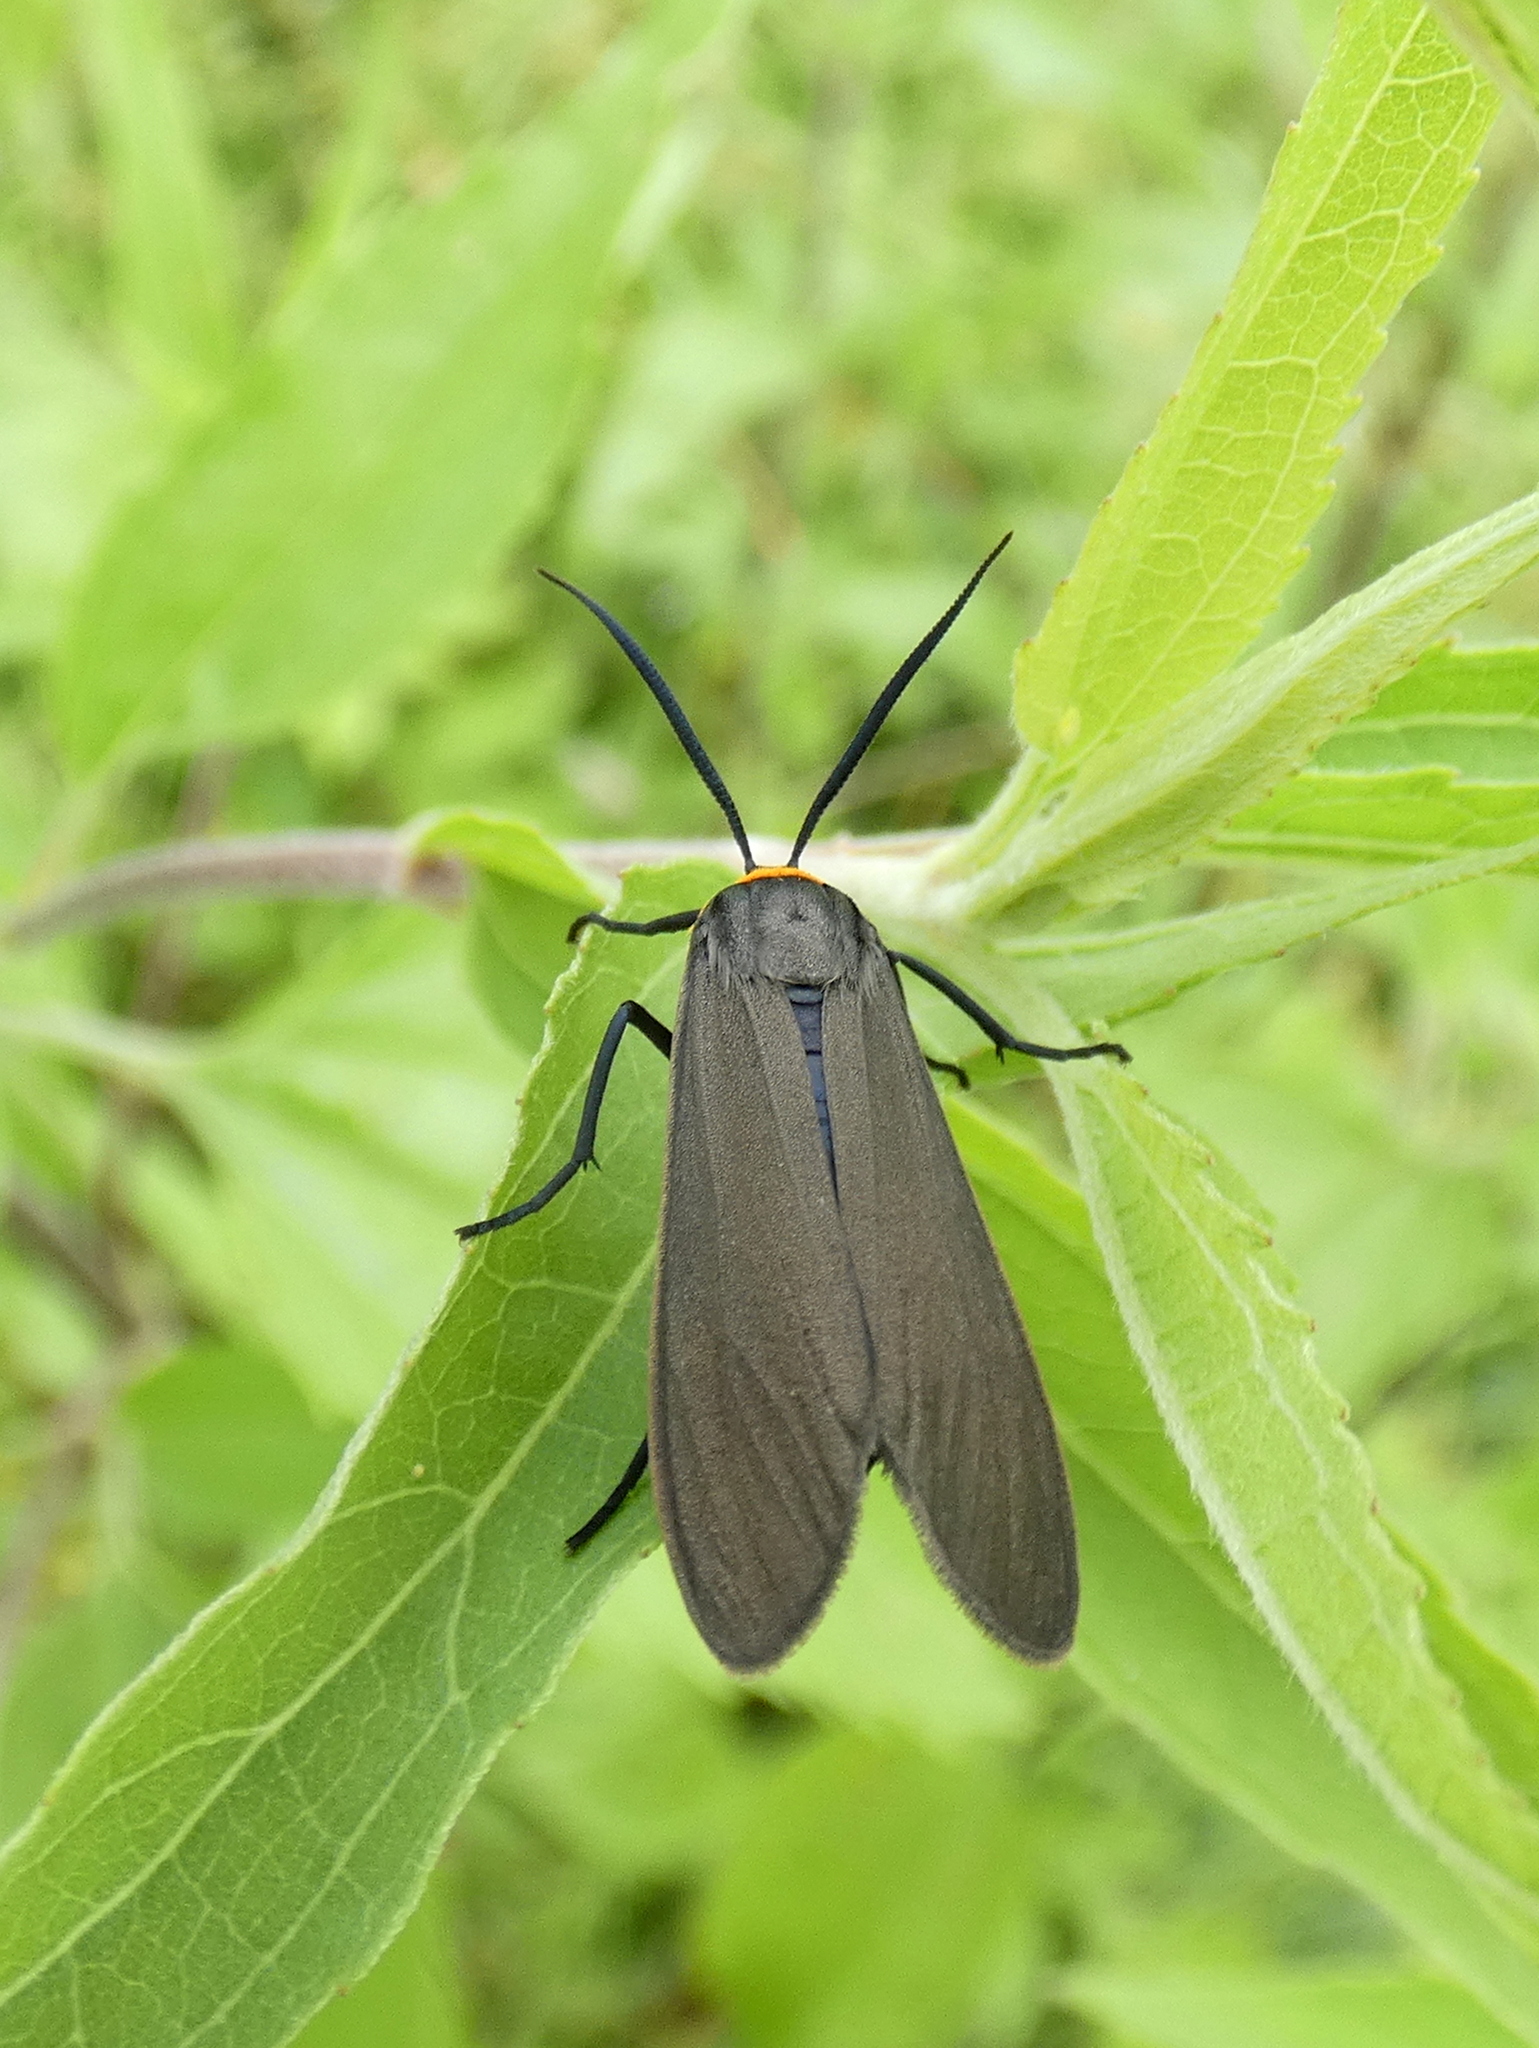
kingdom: Animalia
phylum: Arthropoda
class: Insecta
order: Lepidoptera
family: Erebidae
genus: Cisseps
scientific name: Cisseps fulvicollis
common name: Yellow-collared scape moth
